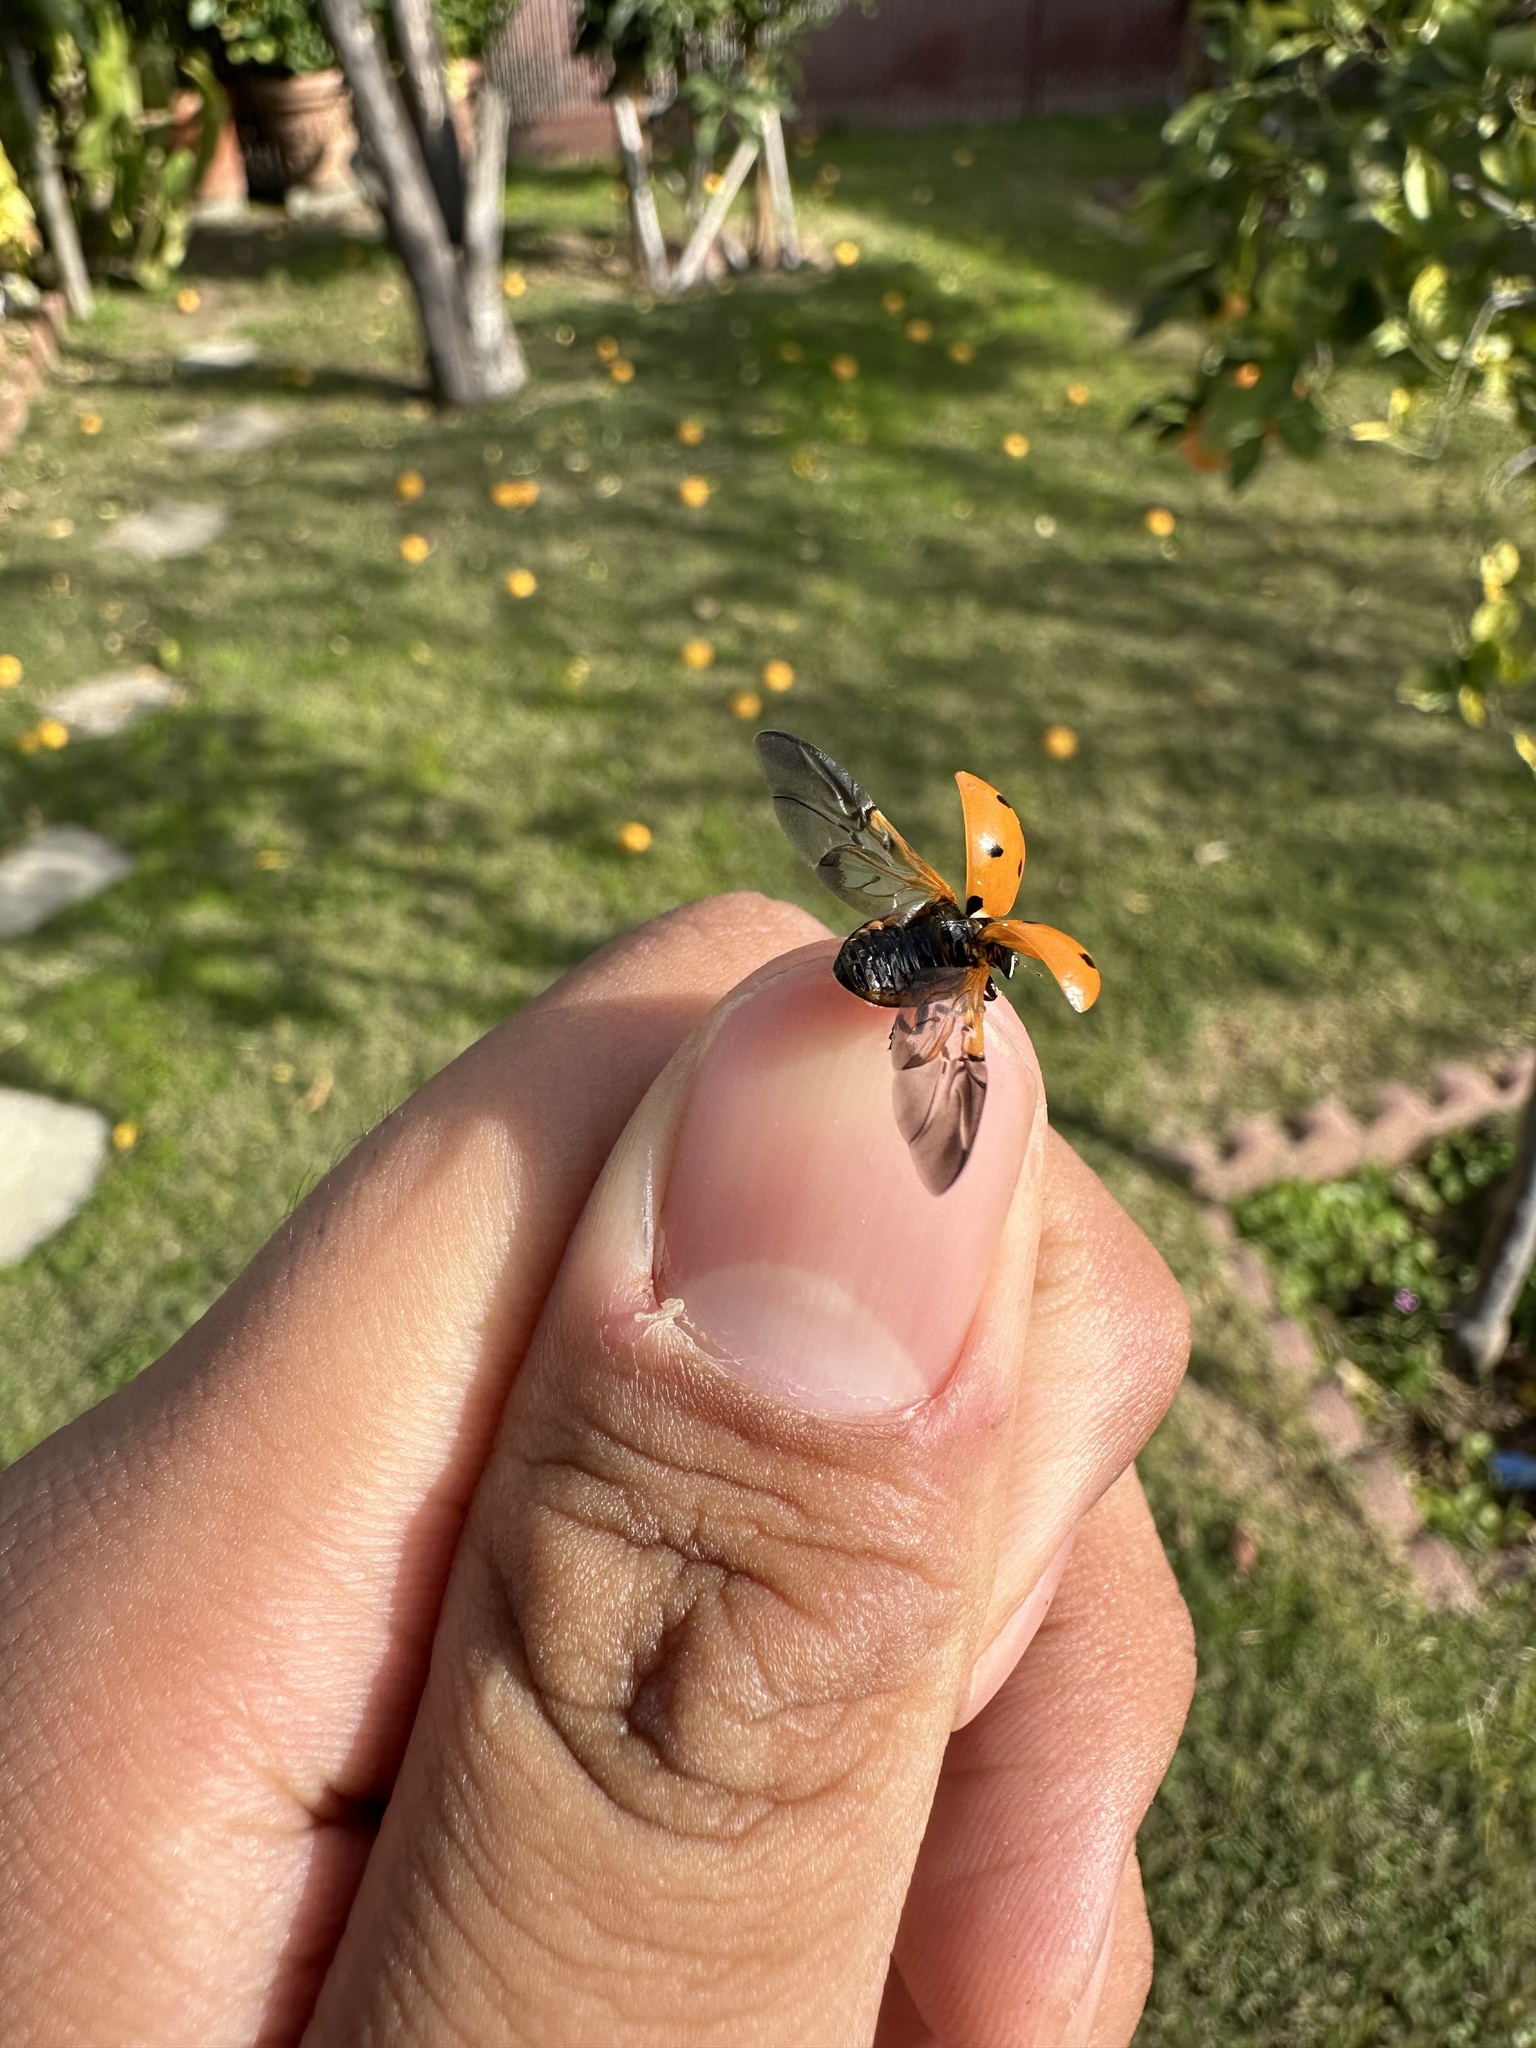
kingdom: Animalia
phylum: Arthropoda
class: Insecta
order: Coleoptera
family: Coccinellidae
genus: Coccinella
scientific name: Coccinella septempunctata
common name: Sevenspotted lady beetle
